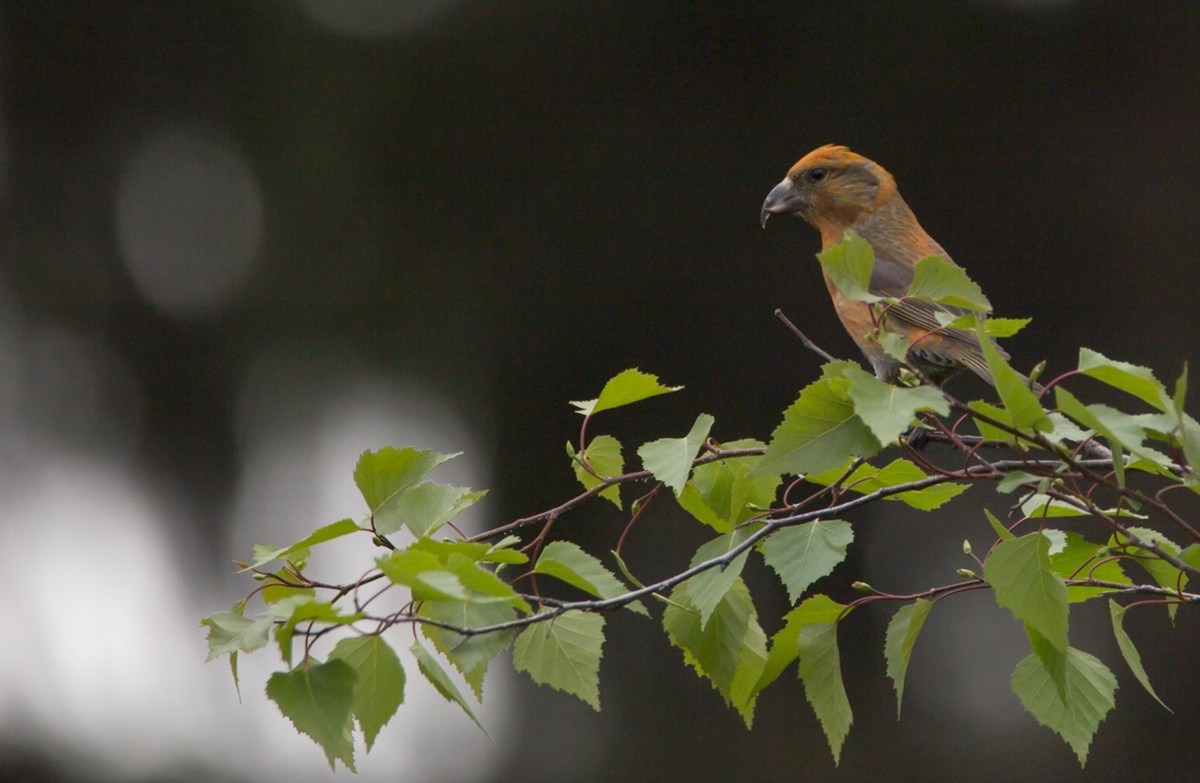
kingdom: Animalia
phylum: Chordata
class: Aves
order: Passeriformes
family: Fringillidae
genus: Loxia
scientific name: Loxia curvirostra
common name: Red crossbill
